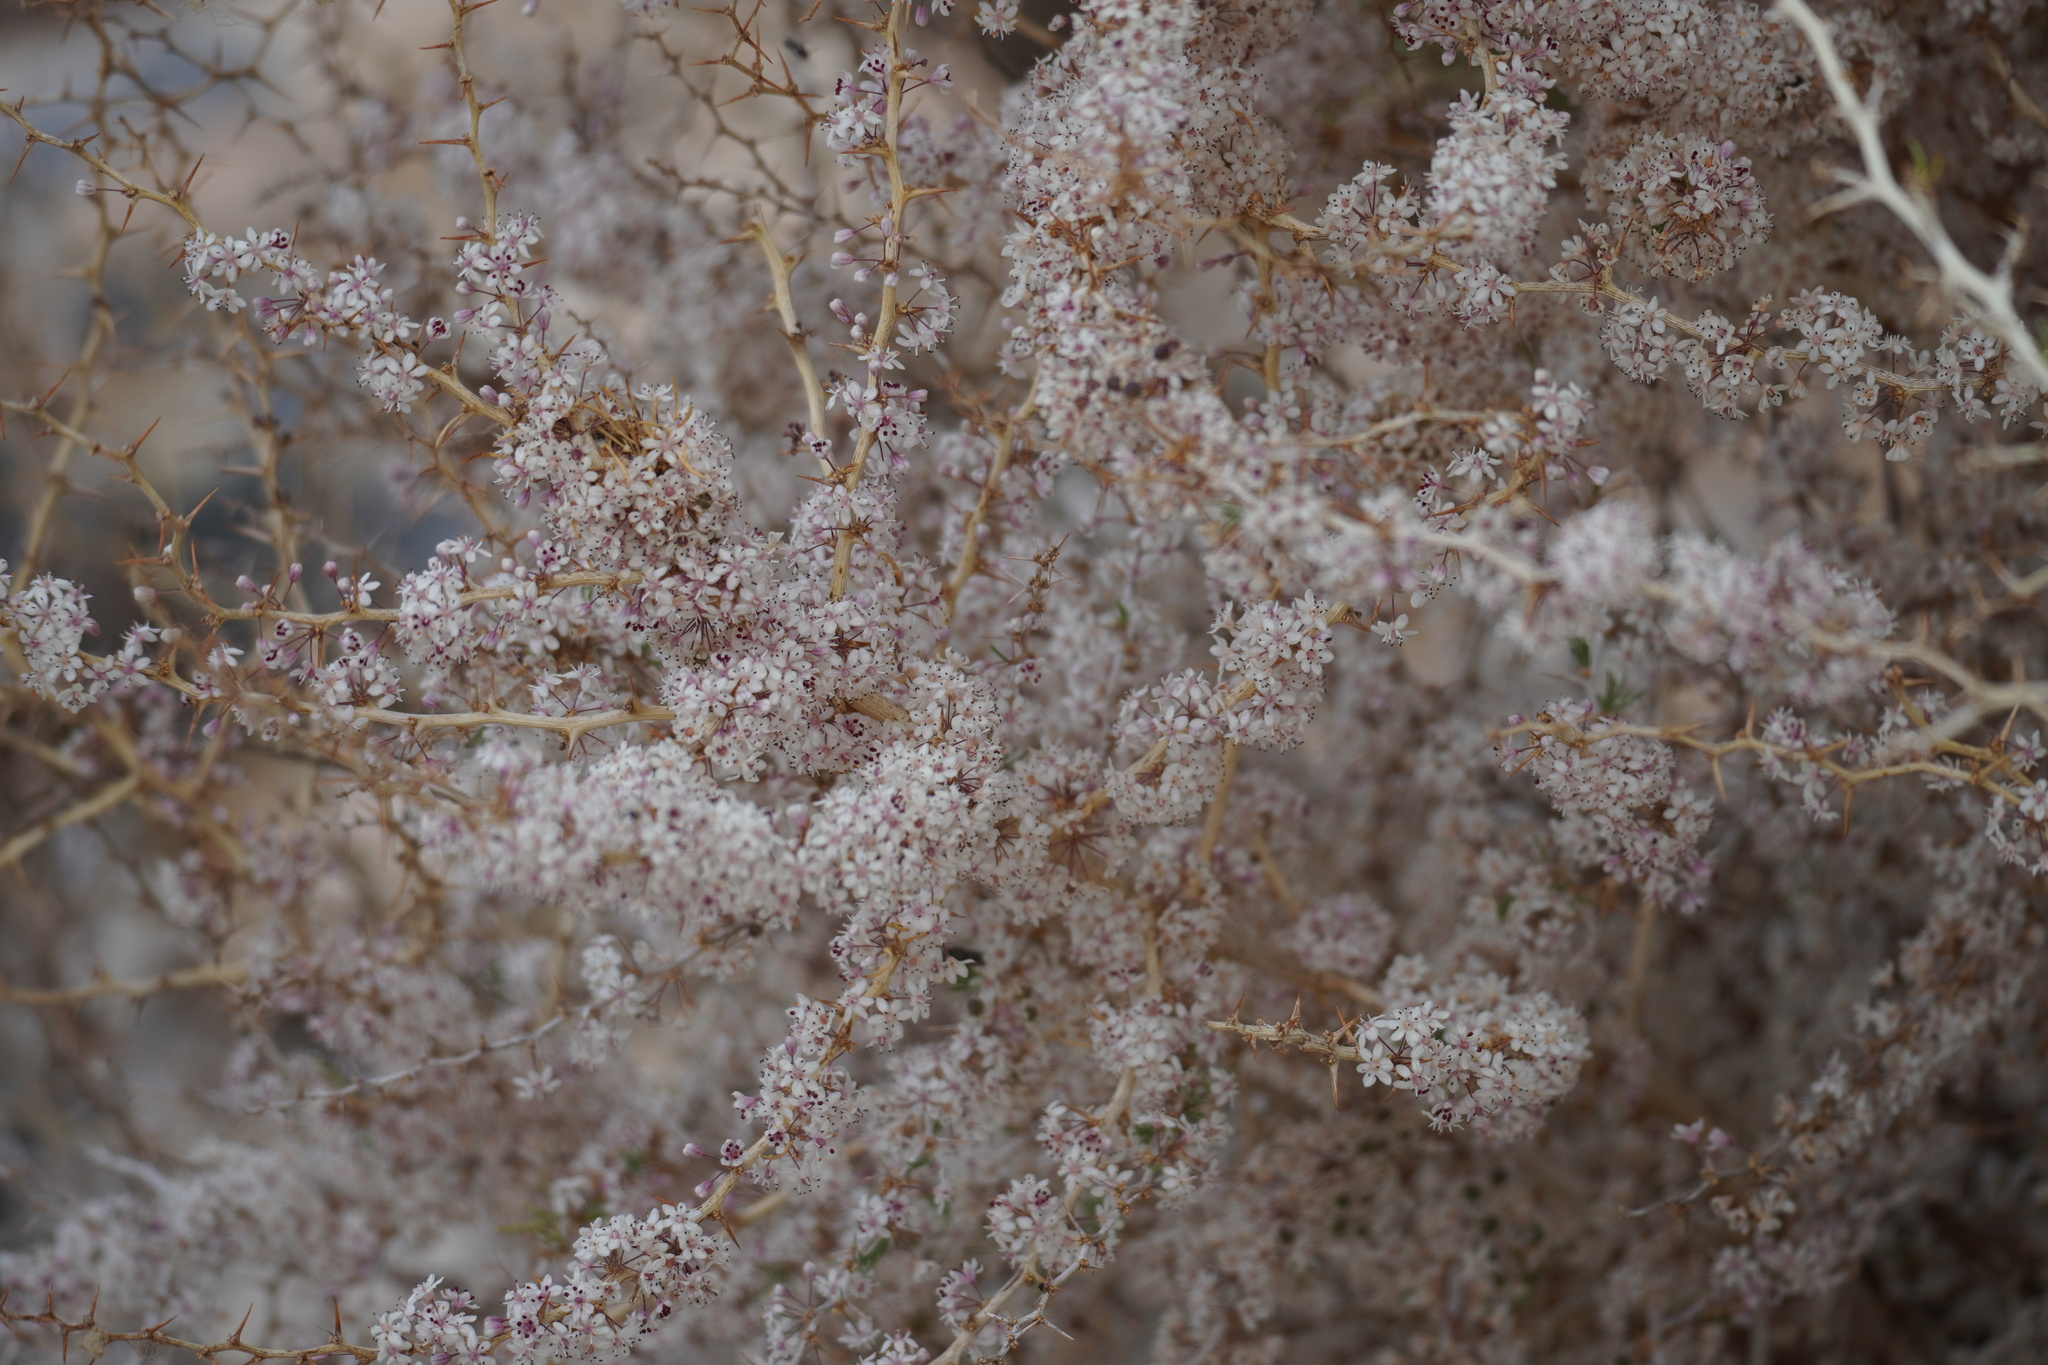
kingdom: Plantae
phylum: Tracheophyta
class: Liliopsida
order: Asparagales
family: Asparagaceae
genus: Asparagus
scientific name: Asparagus albus
